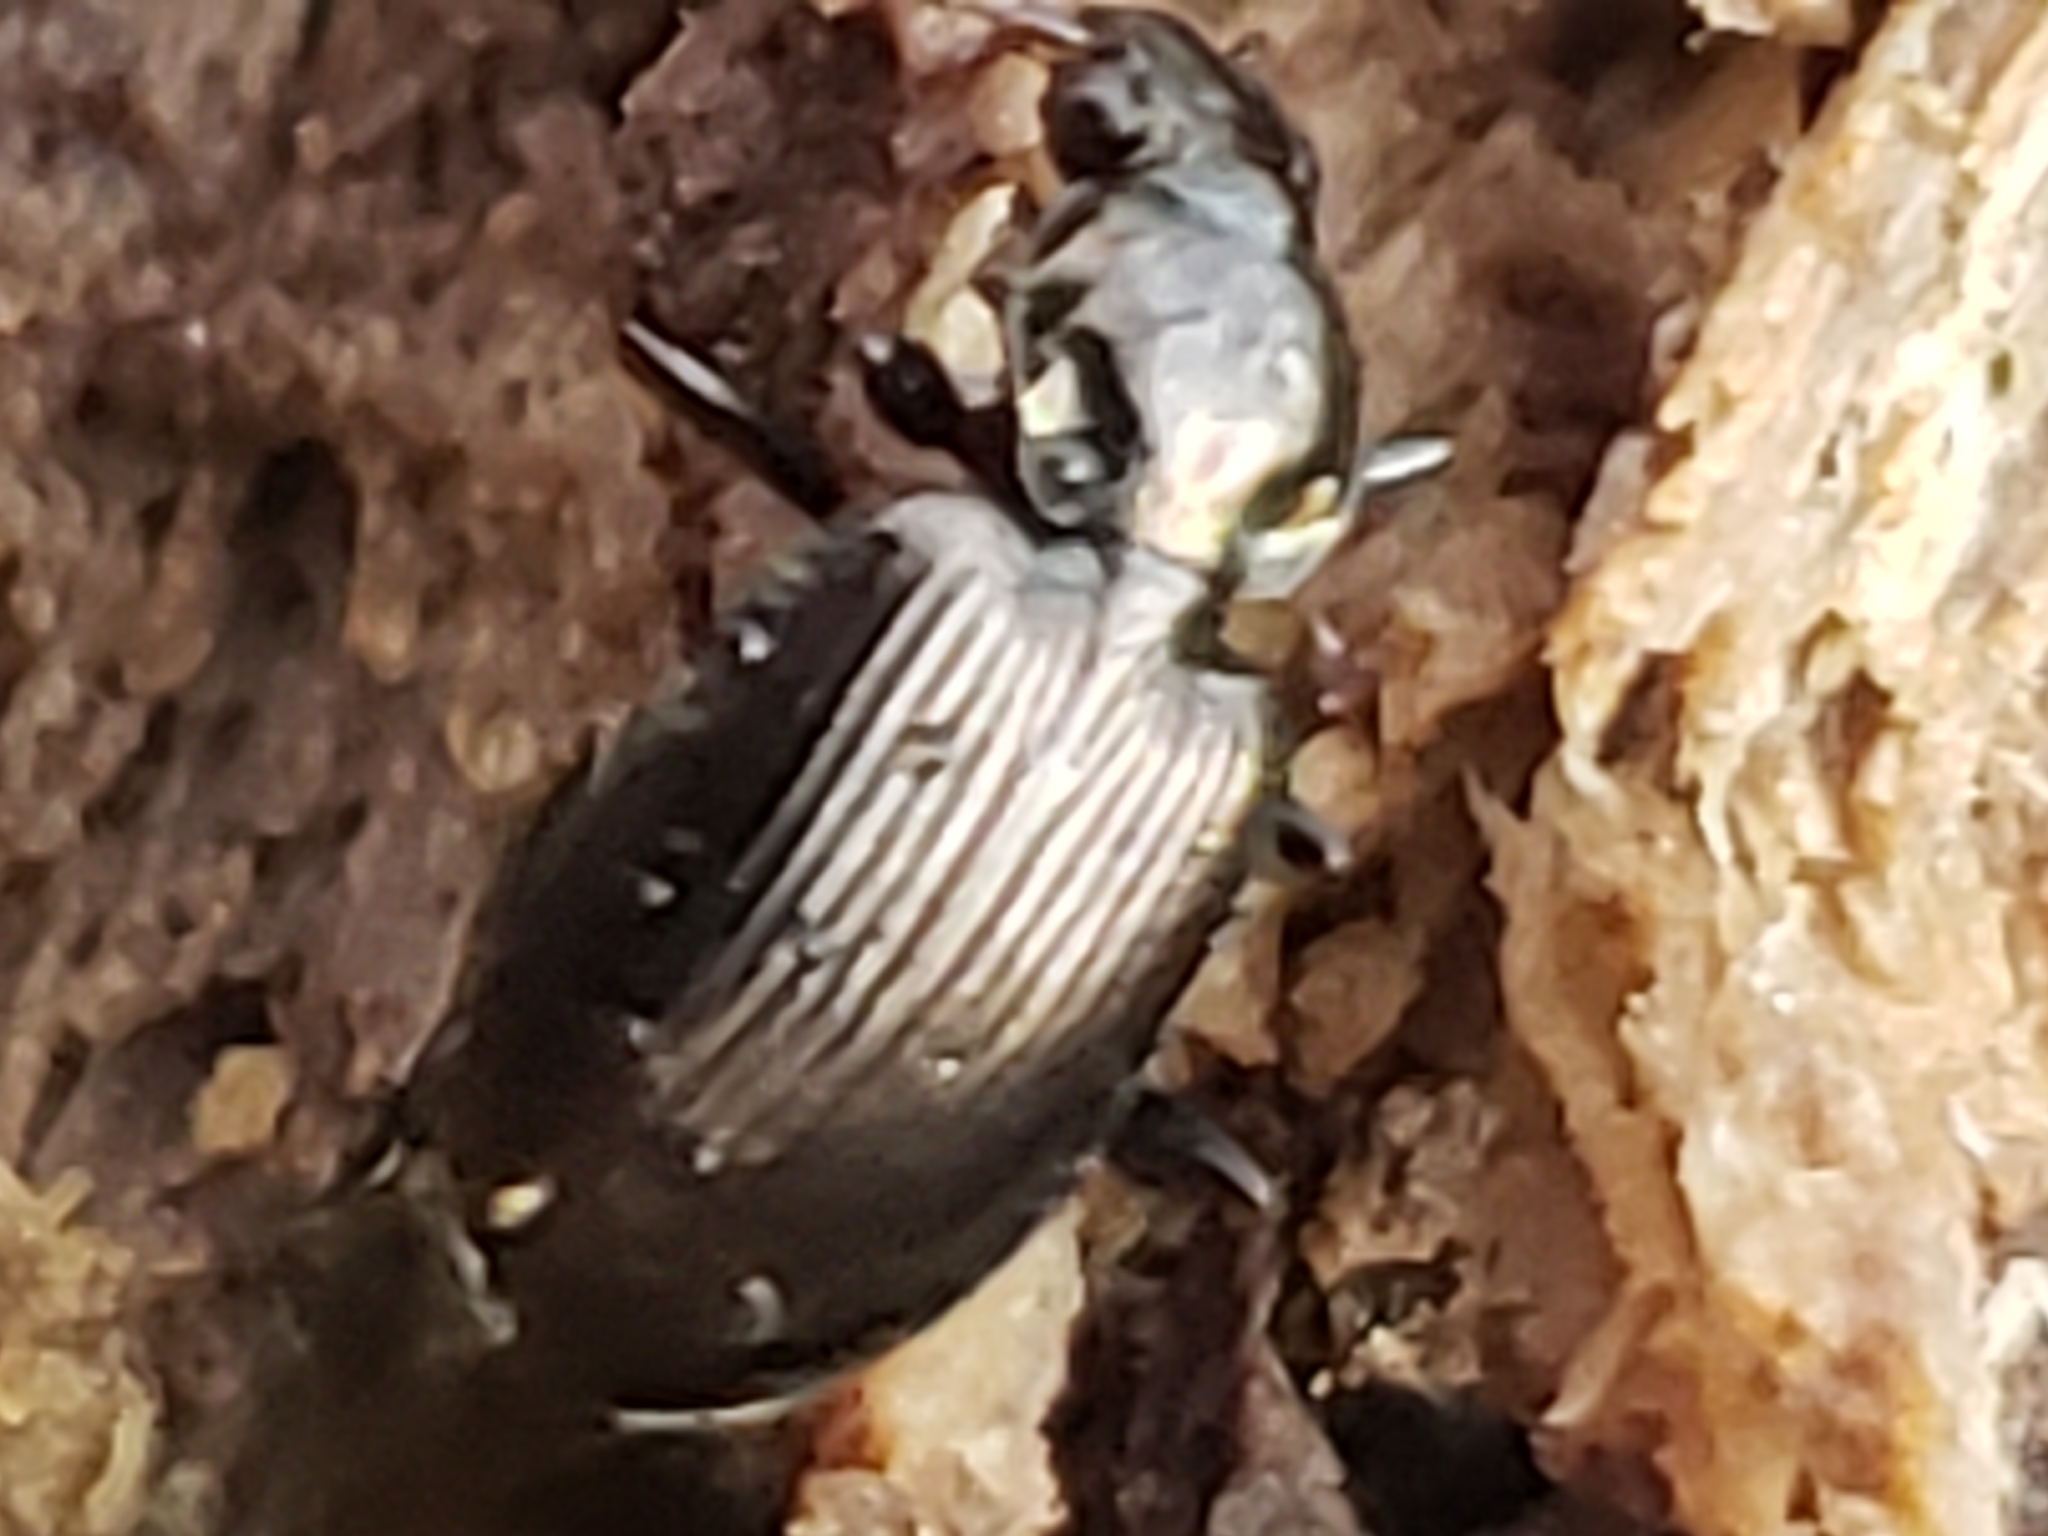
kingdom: Animalia
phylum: Arthropoda
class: Insecta
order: Coleoptera
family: Carabidae
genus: Agonum
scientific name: Agonum striatopunctatum
